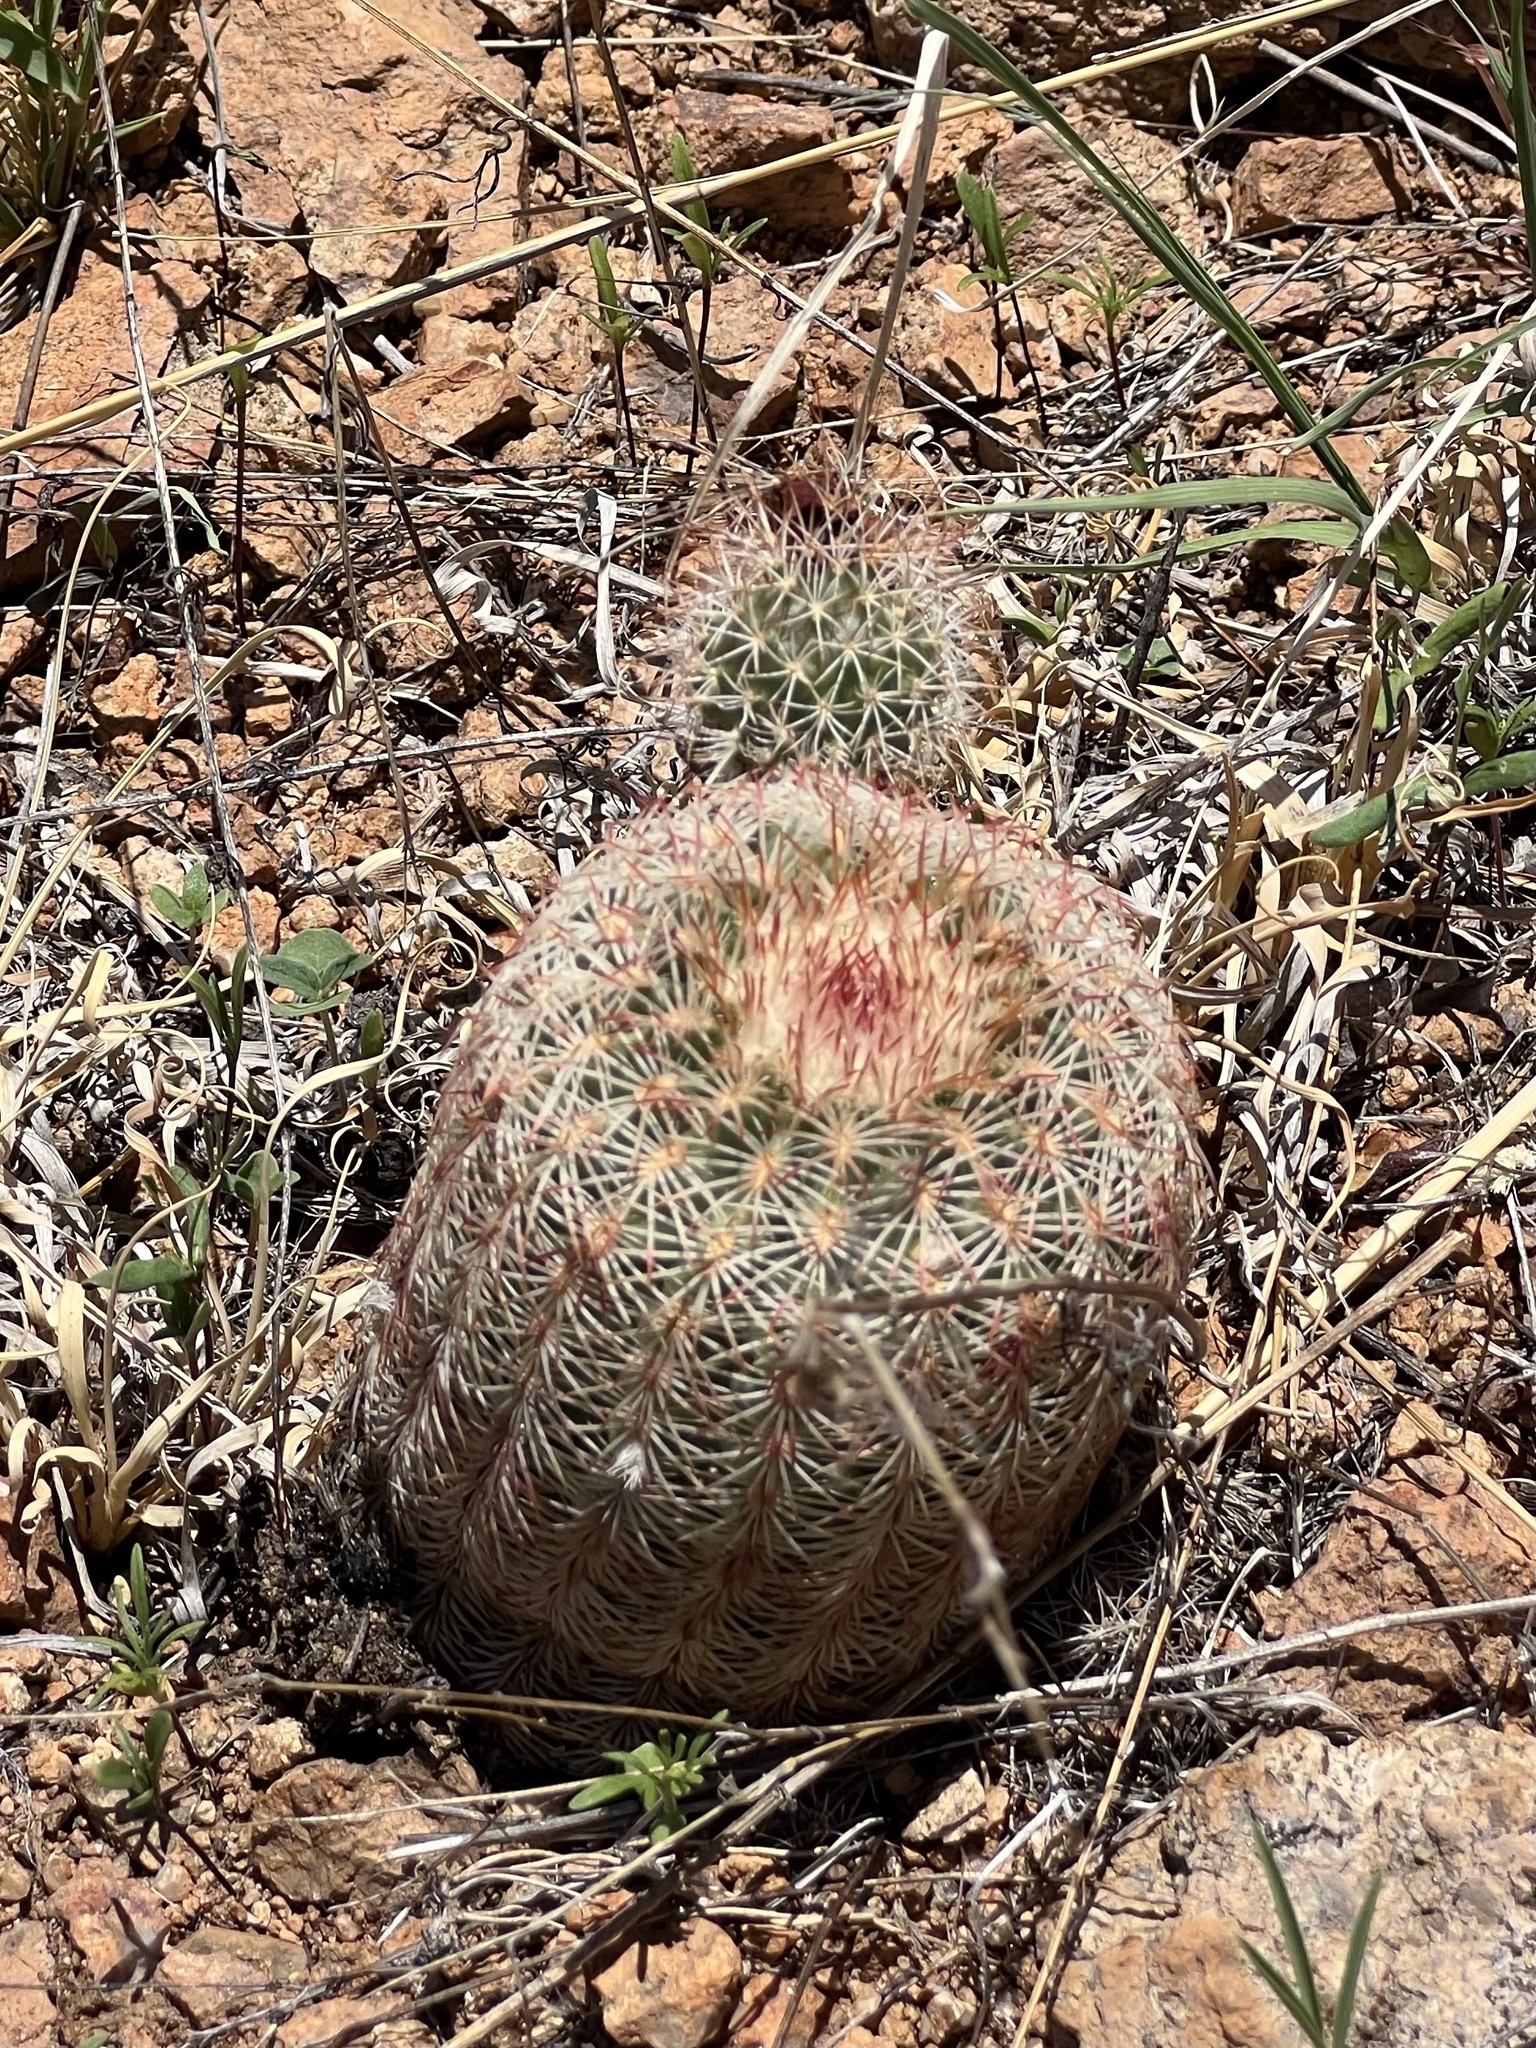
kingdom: Plantae
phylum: Tracheophyta
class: Magnoliopsida
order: Caryophyllales
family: Cactaceae
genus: Echinocereus
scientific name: Echinocereus rigidissimus
